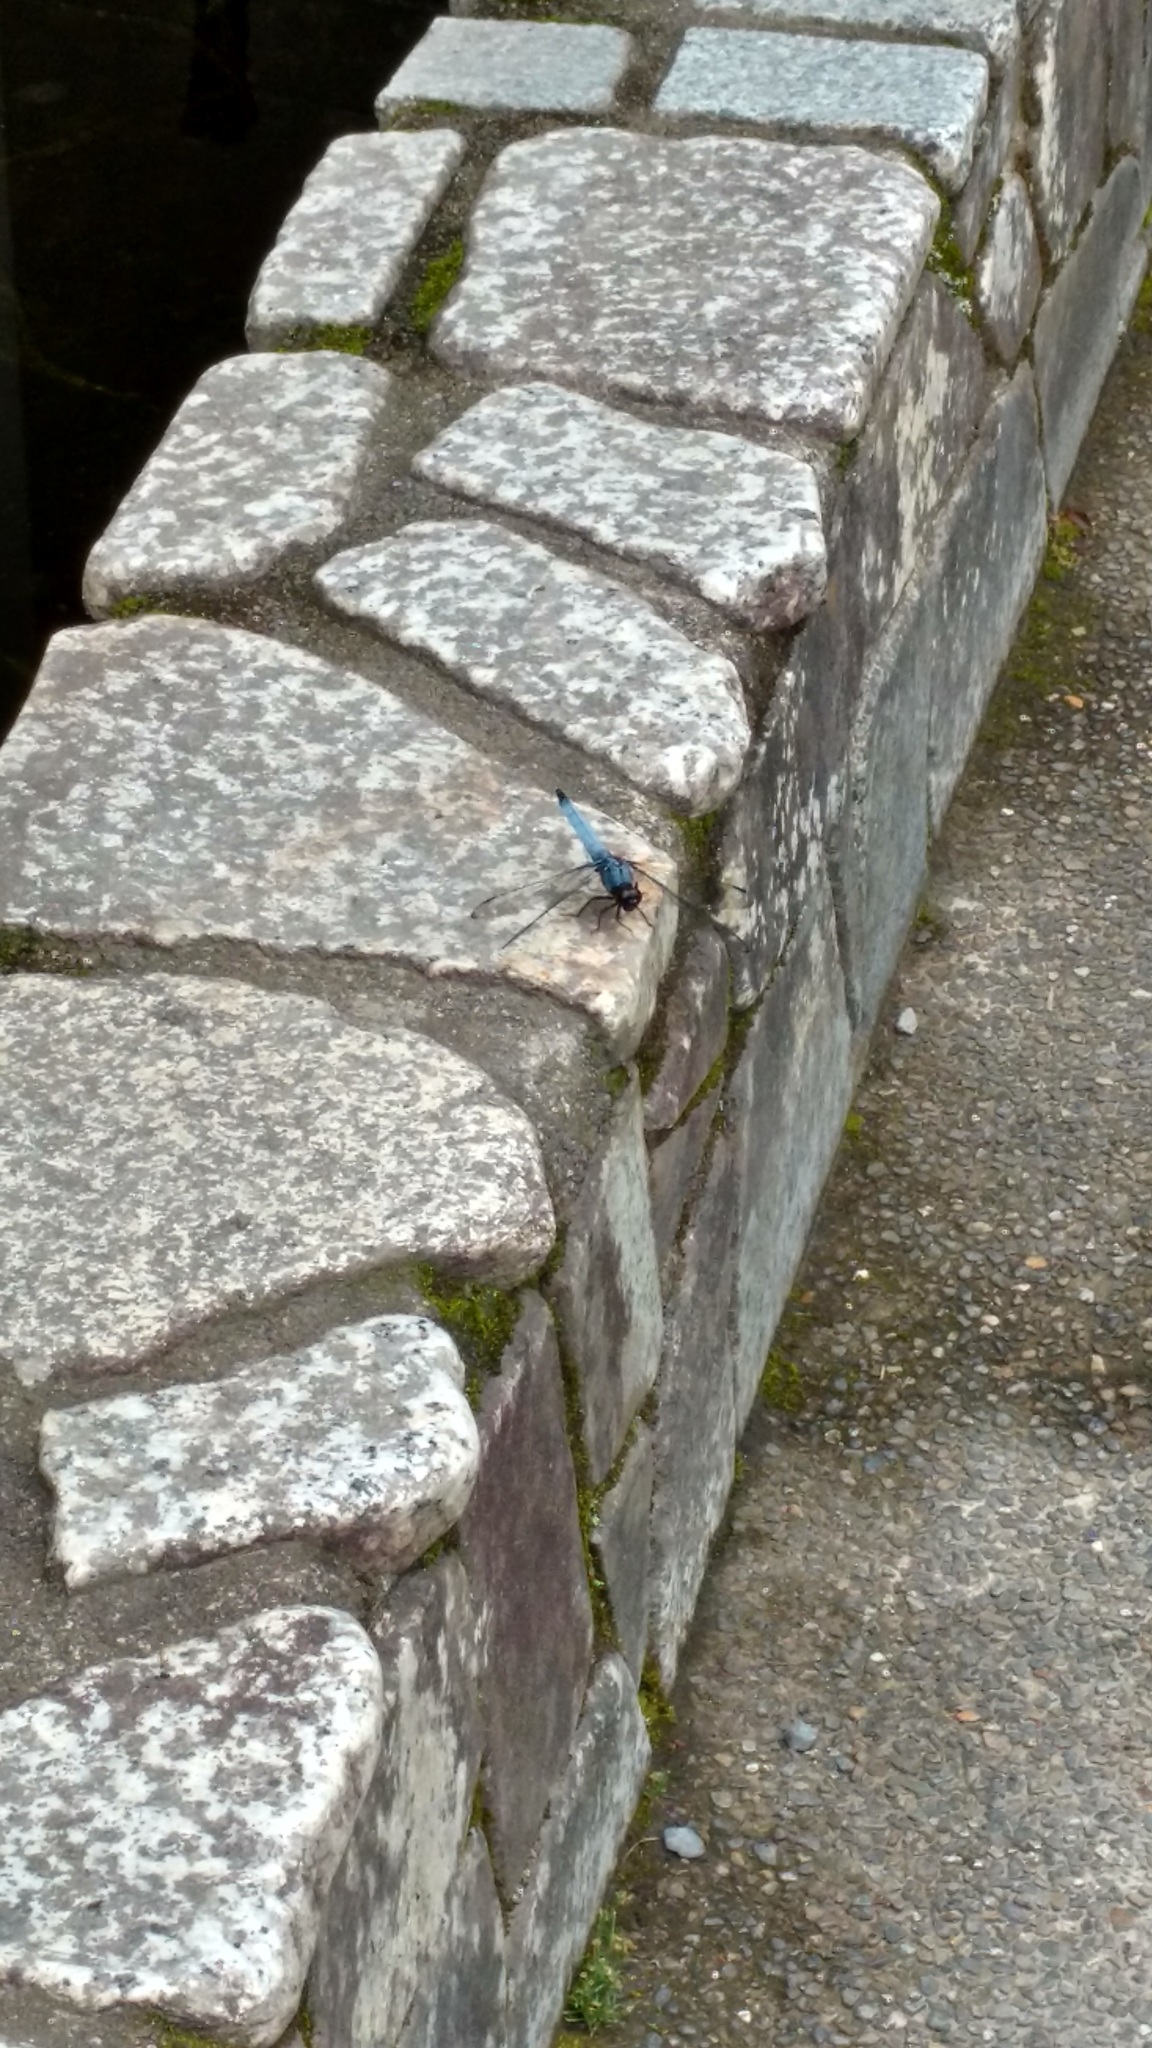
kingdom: Animalia
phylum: Arthropoda
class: Insecta
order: Odonata
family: Libellulidae
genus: Orthetrum
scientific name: Orthetrum melania
